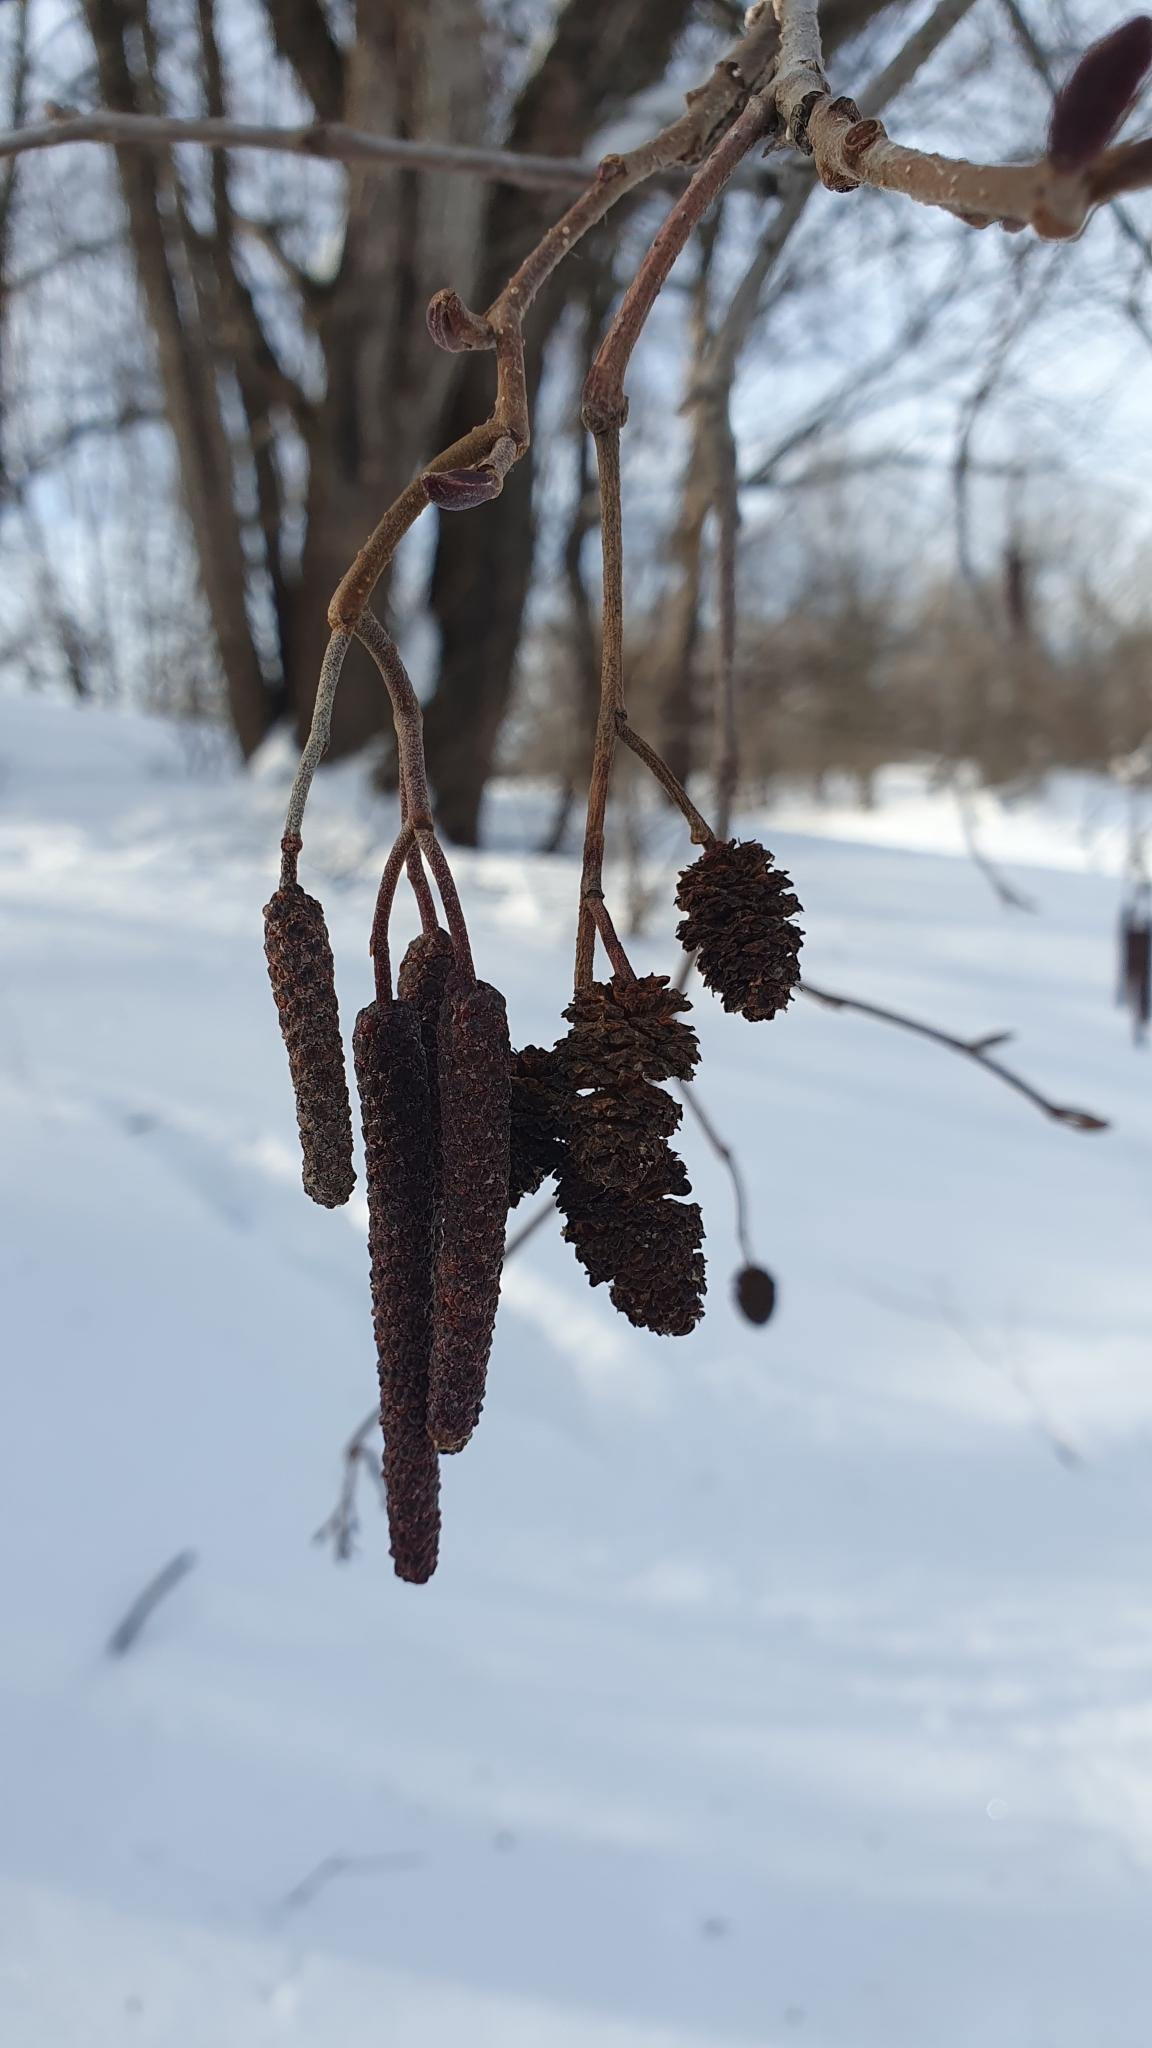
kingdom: Plantae
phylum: Tracheophyta
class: Magnoliopsida
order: Fagales
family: Betulaceae
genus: Alnus
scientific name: Alnus glutinosa
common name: Black alder
